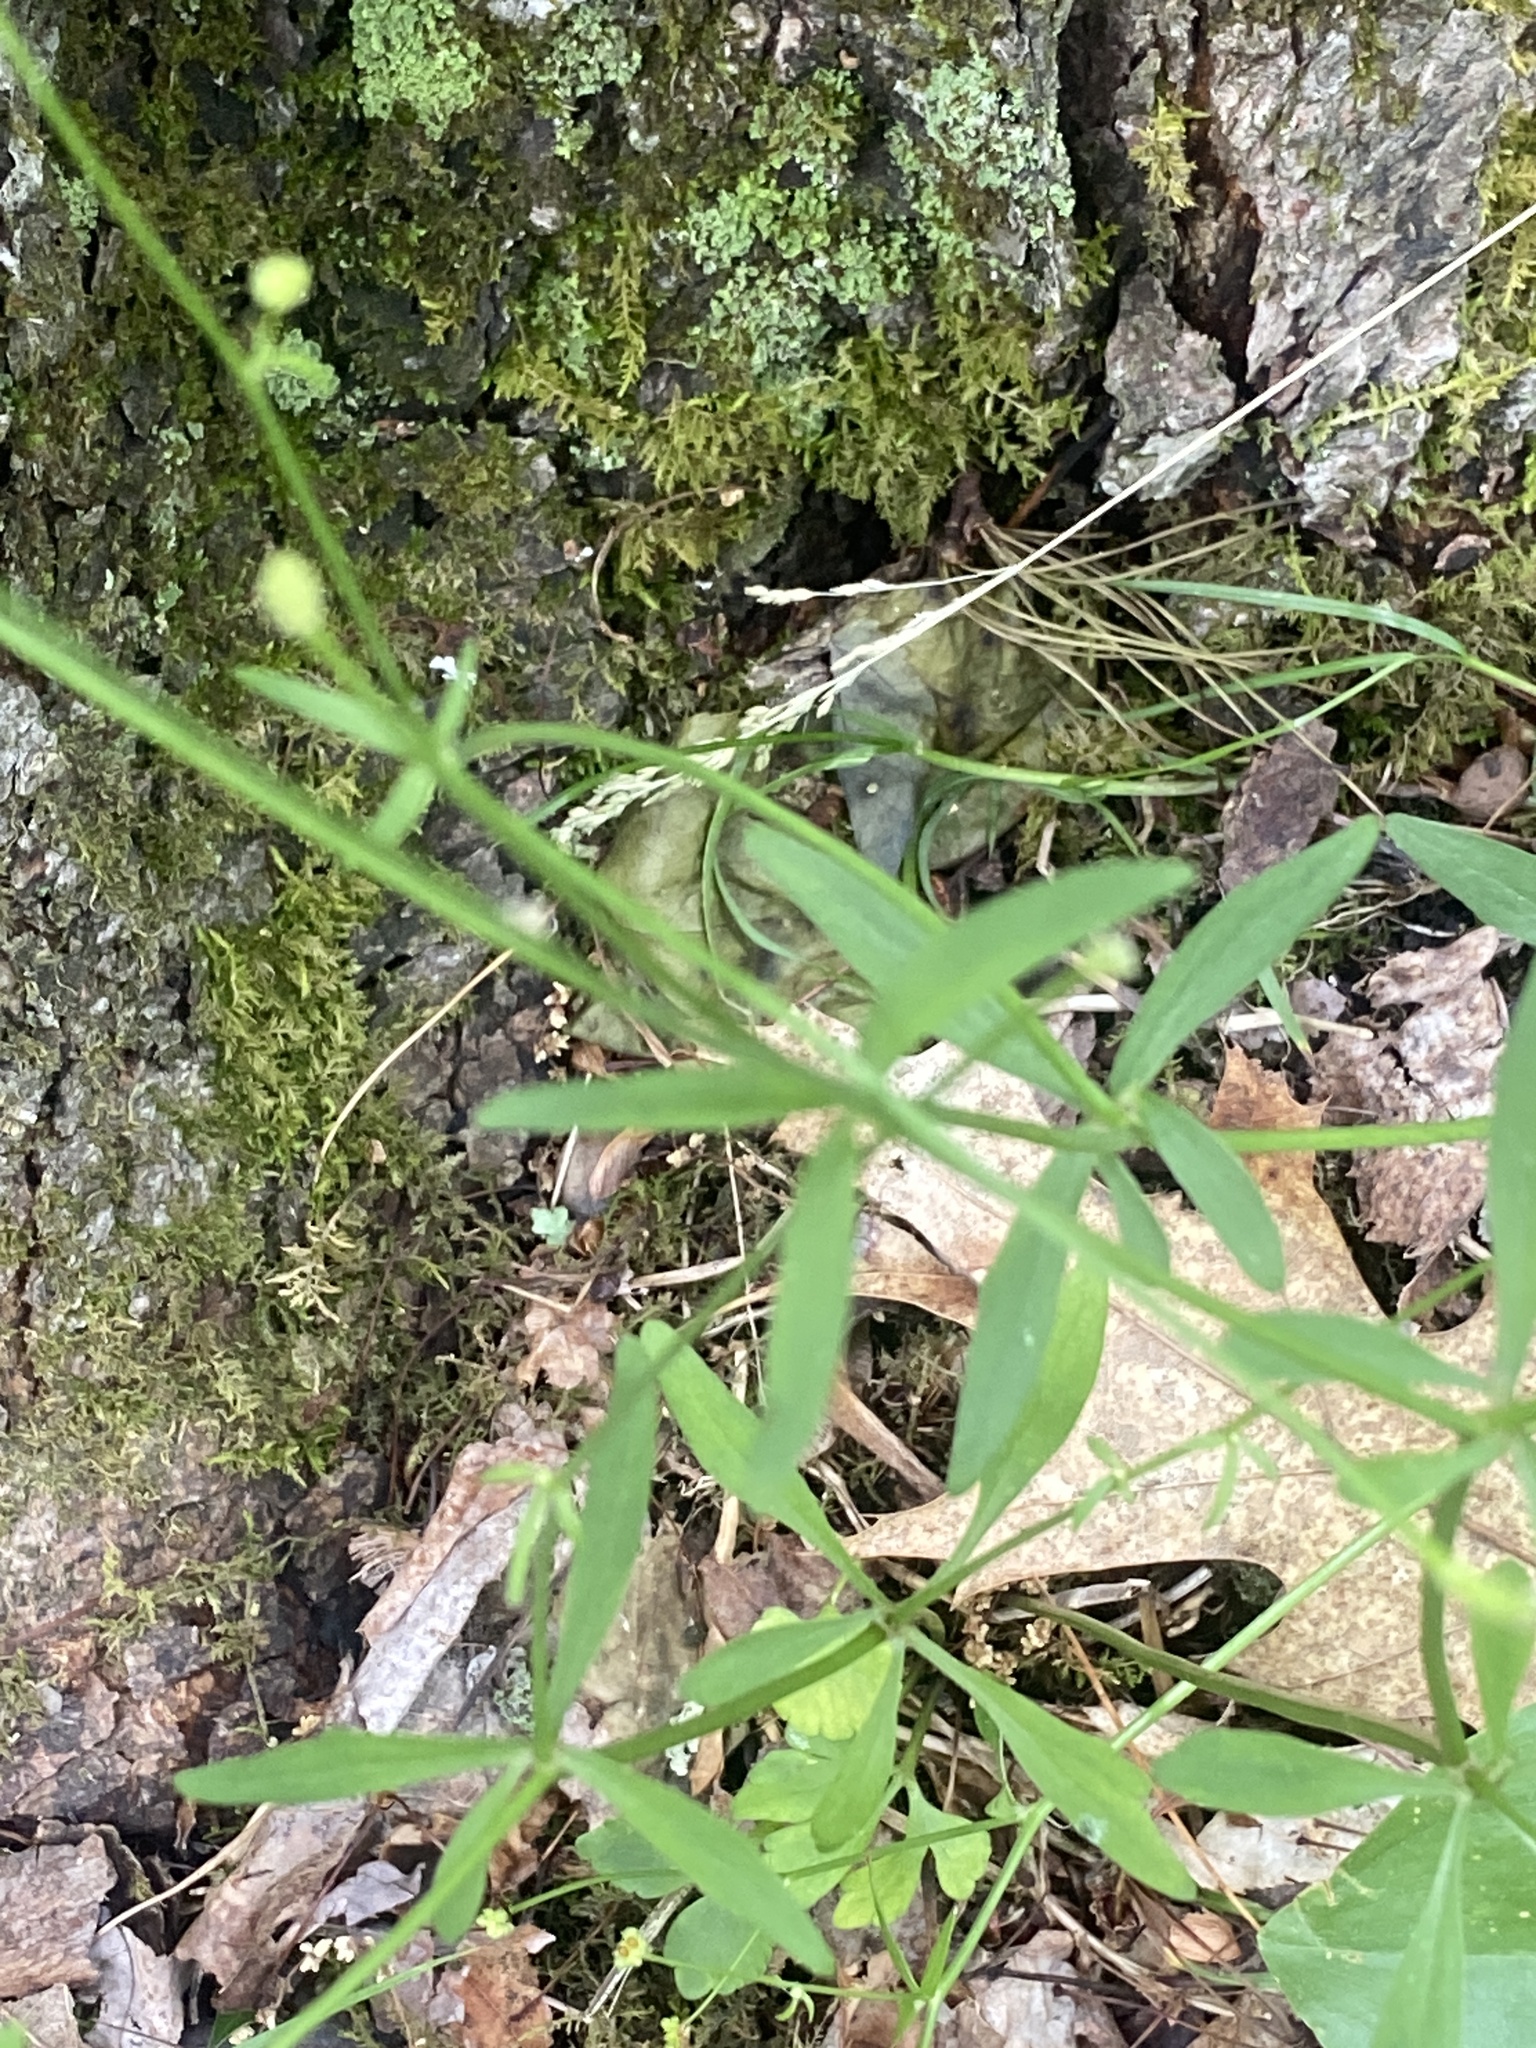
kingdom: Plantae
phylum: Tracheophyta
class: Magnoliopsida
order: Ranunculales
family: Ranunculaceae
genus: Ranunculus
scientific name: Ranunculus abortivus
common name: Early wood buttercup
